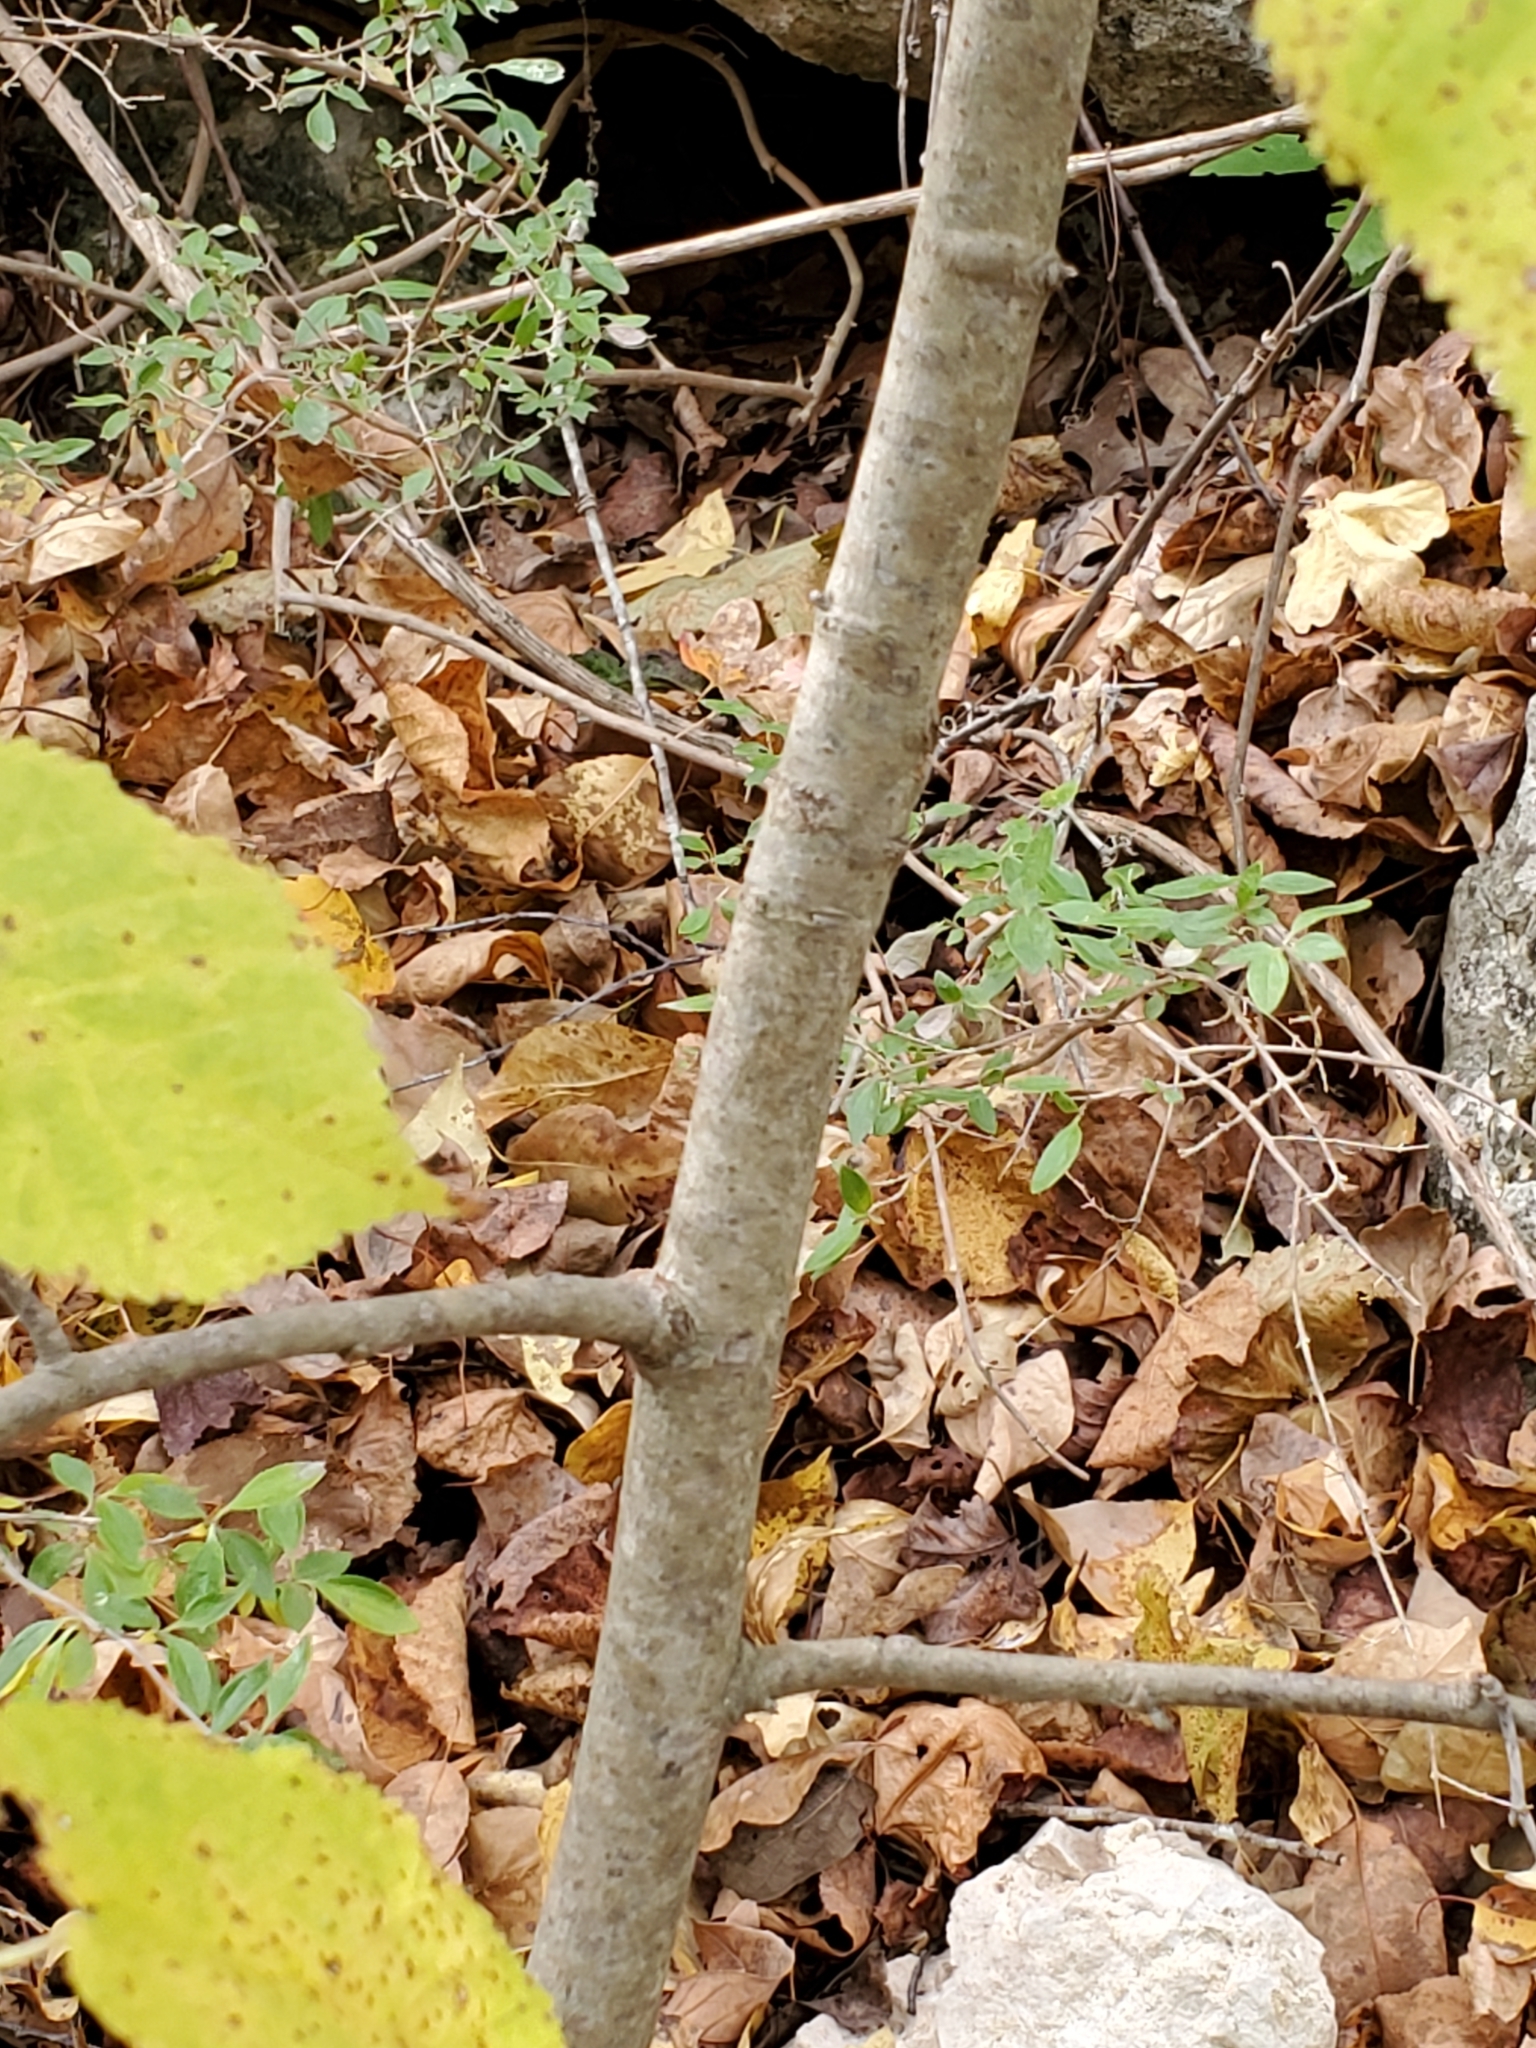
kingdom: Plantae
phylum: Tracheophyta
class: Magnoliopsida
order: Malvales
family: Malvaceae
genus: Tilia
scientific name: Tilia americana
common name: Basswood
